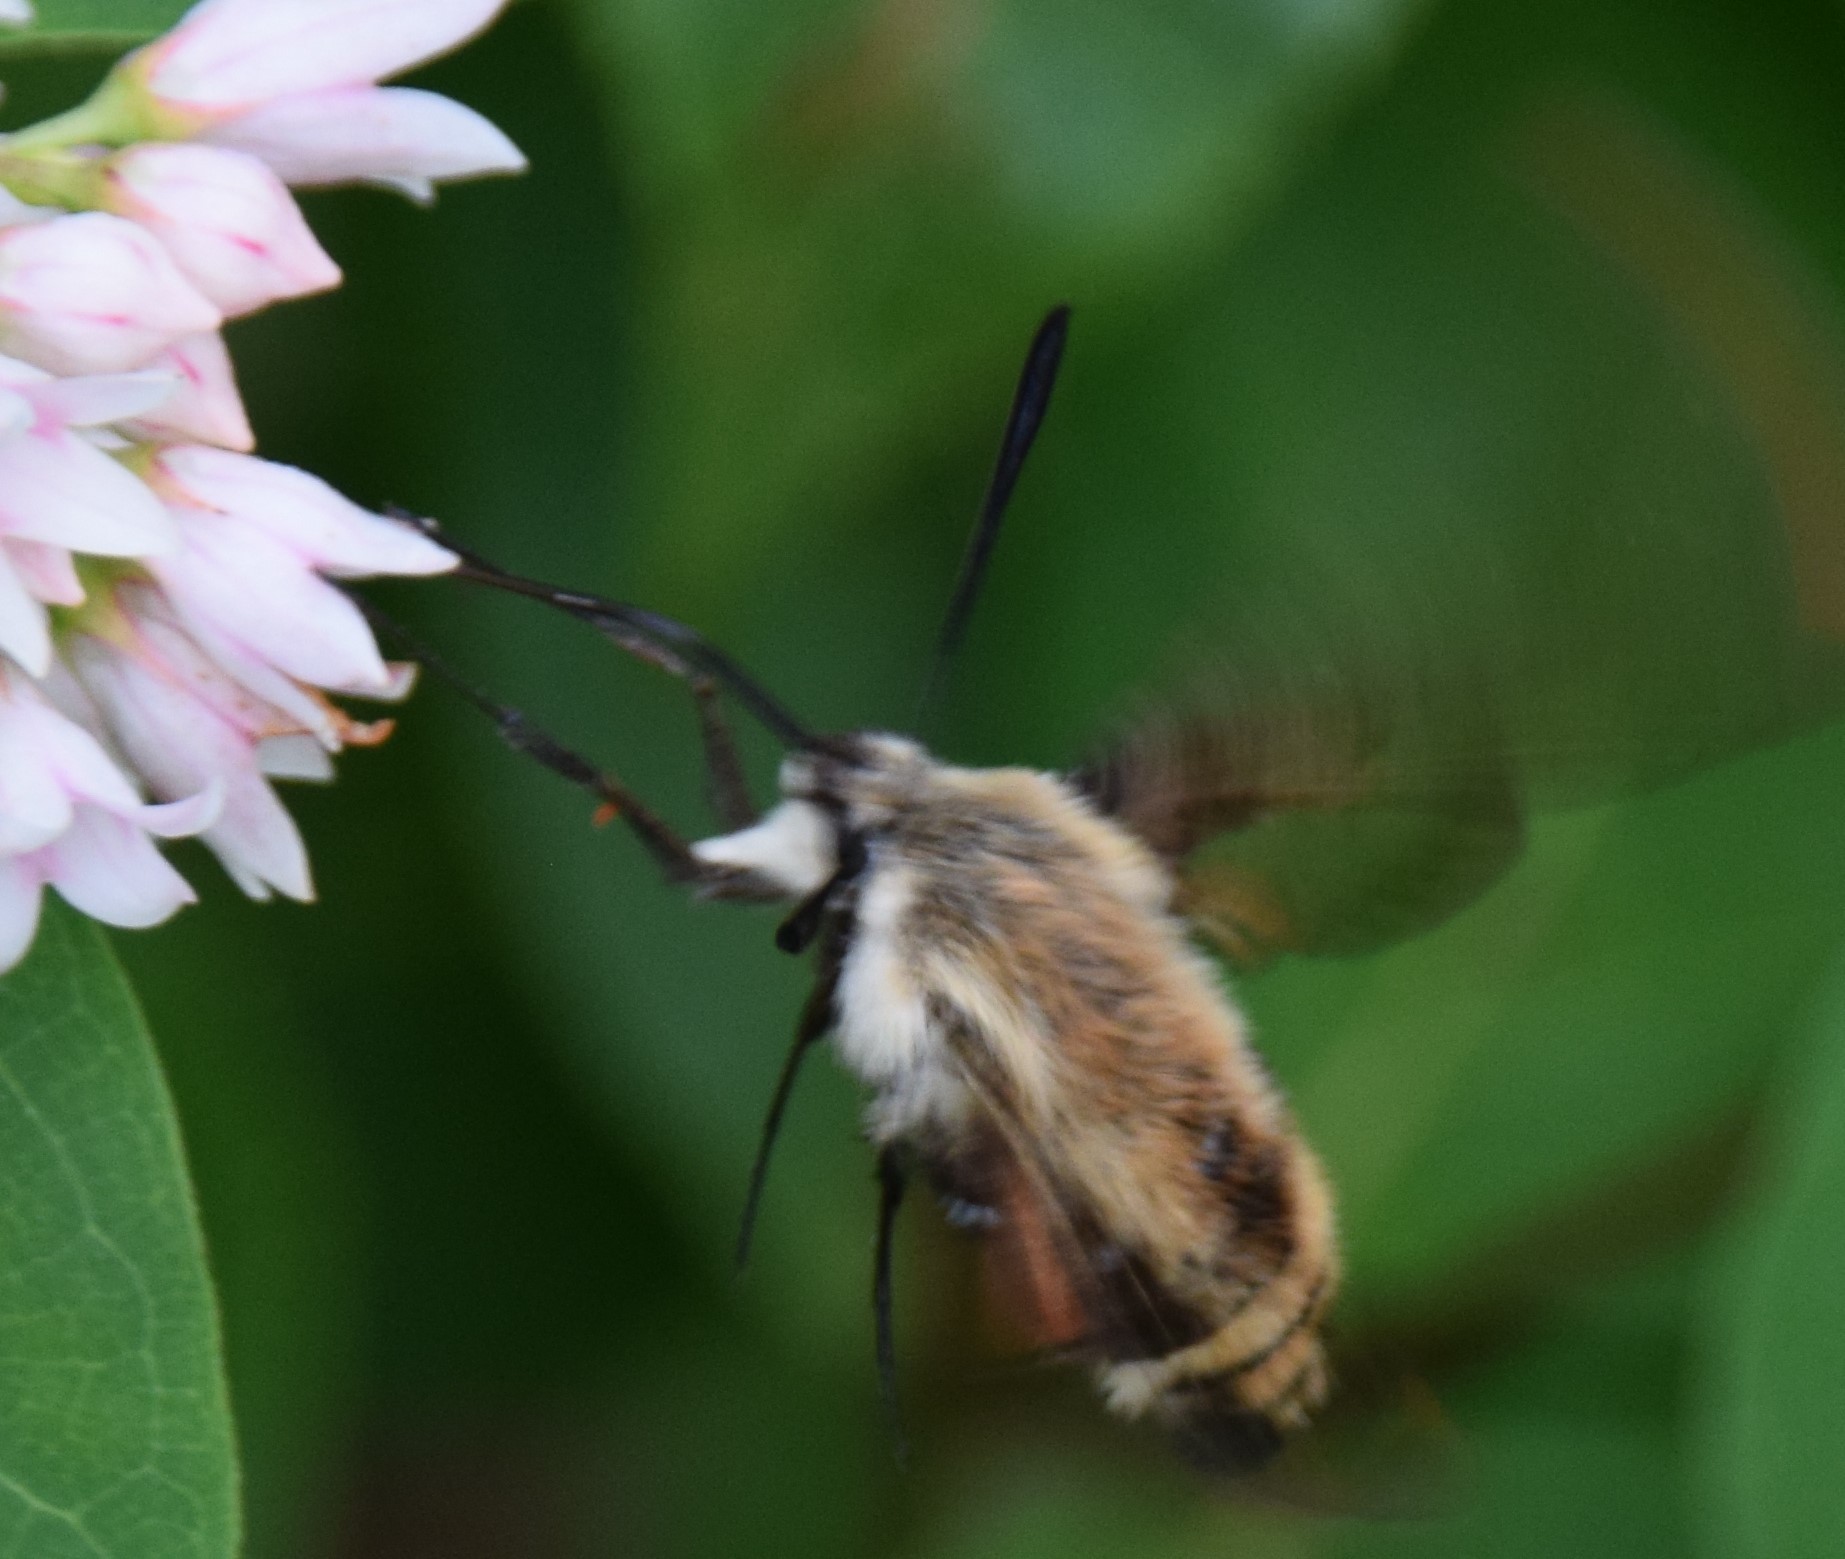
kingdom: Animalia
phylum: Arthropoda
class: Insecta
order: Lepidoptera
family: Sphingidae
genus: Hemaris
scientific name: Hemaris diffinis
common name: Bumblebee moth
